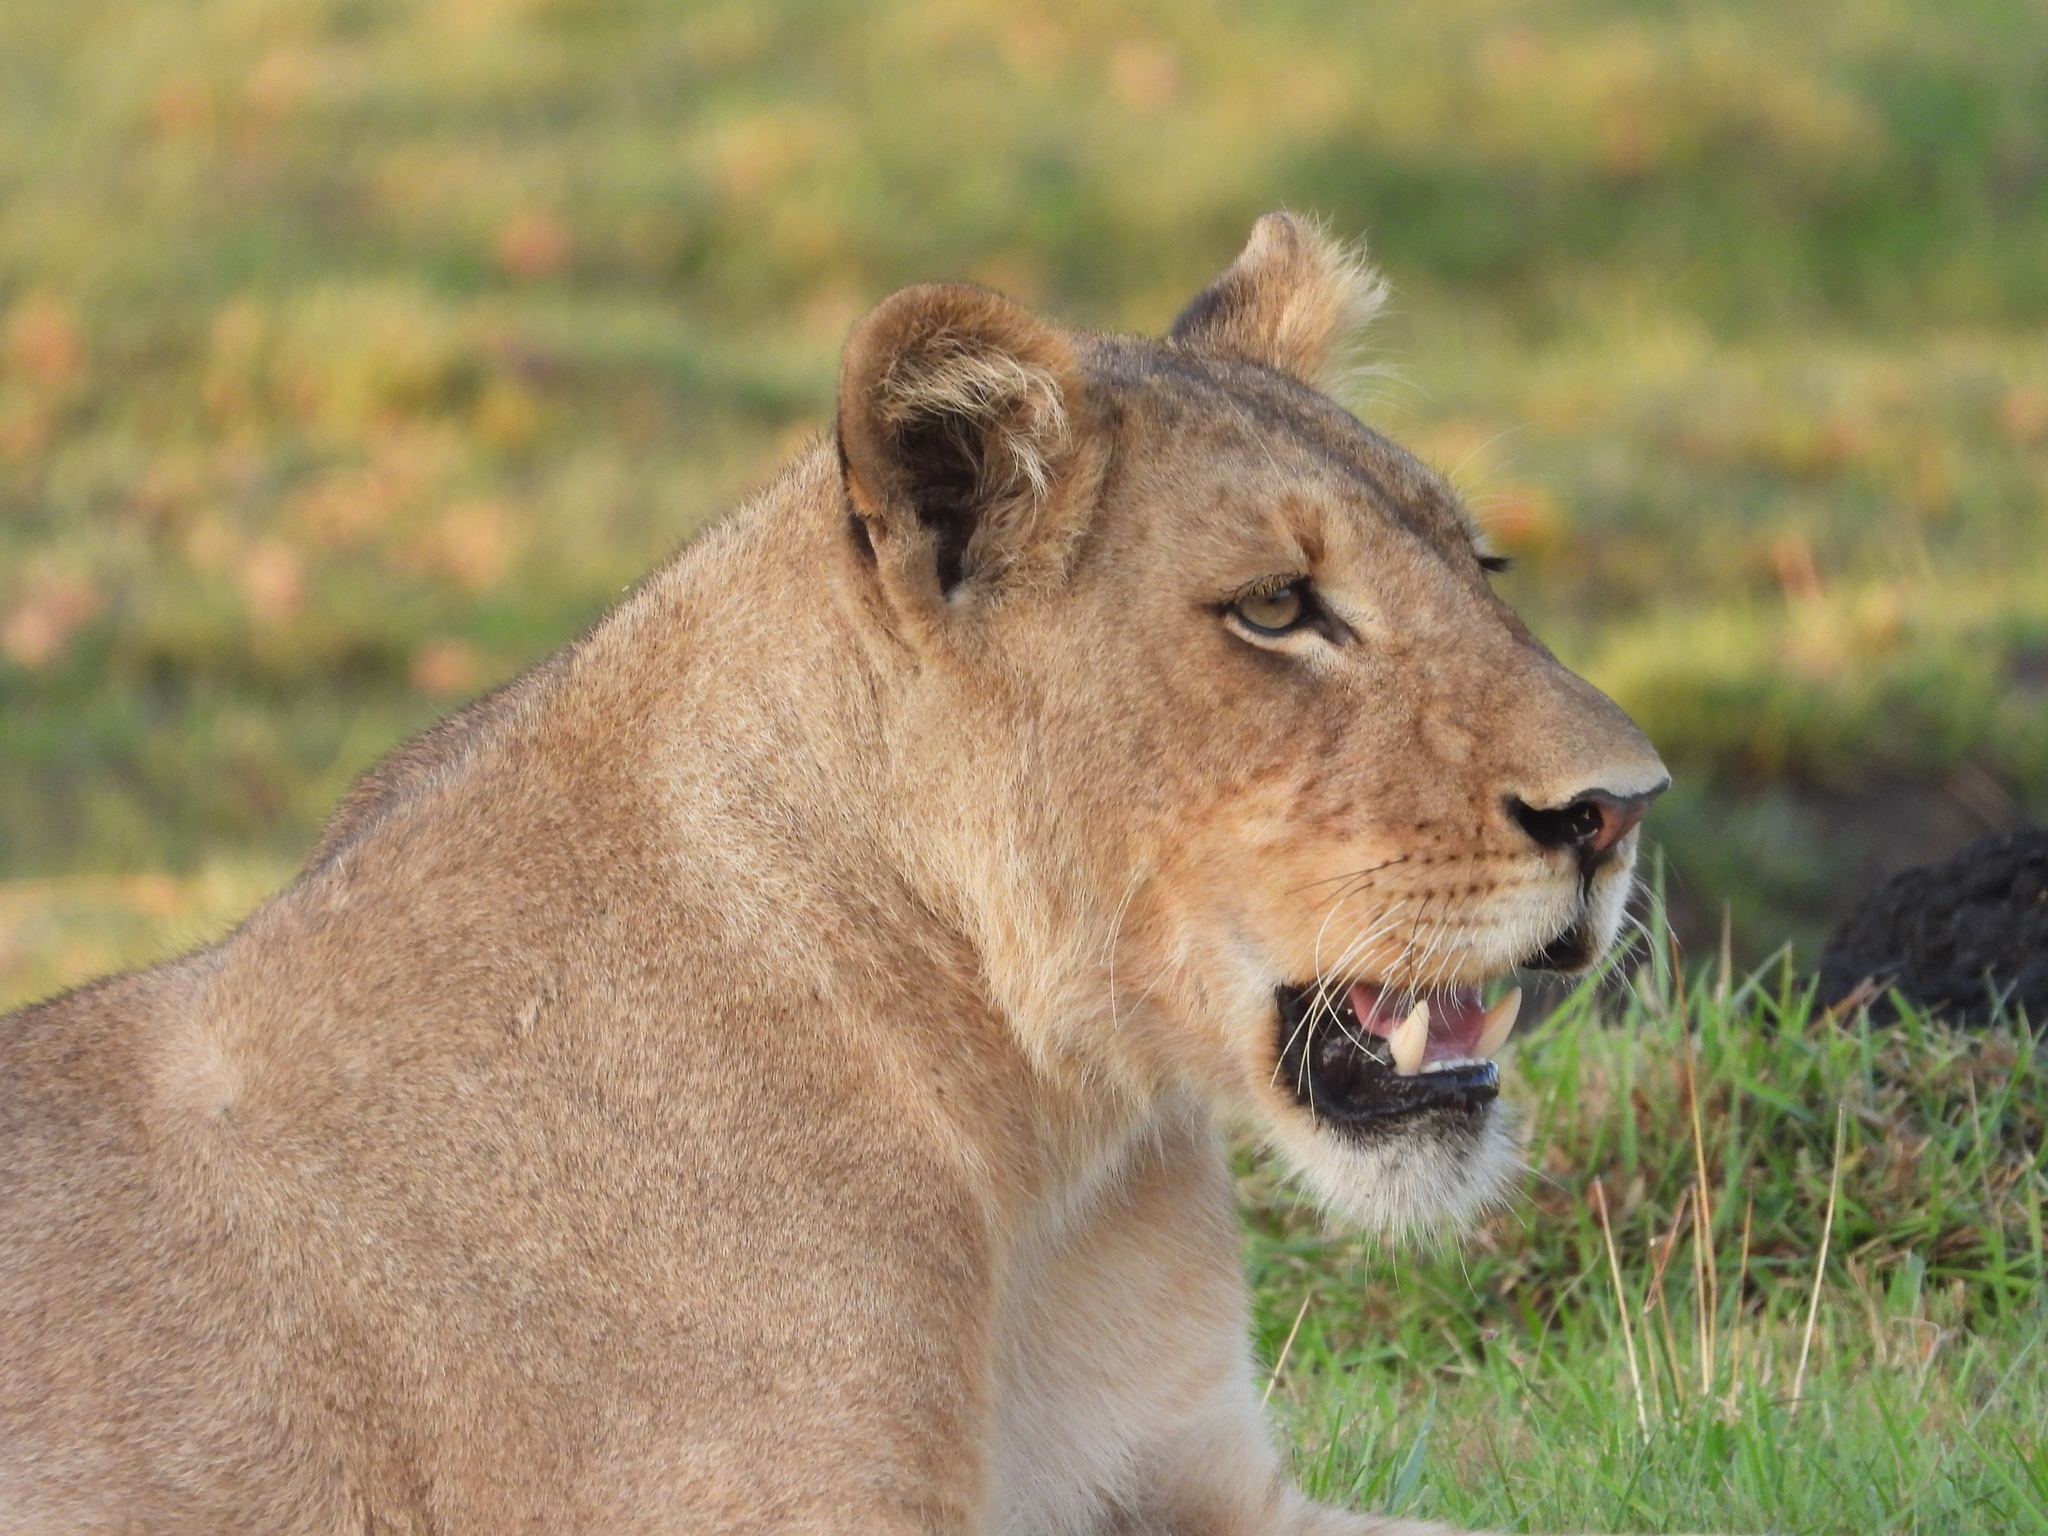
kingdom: Animalia
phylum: Chordata
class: Mammalia
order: Carnivora
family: Felidae
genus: Panthera
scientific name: Panthera leo
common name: Lion
